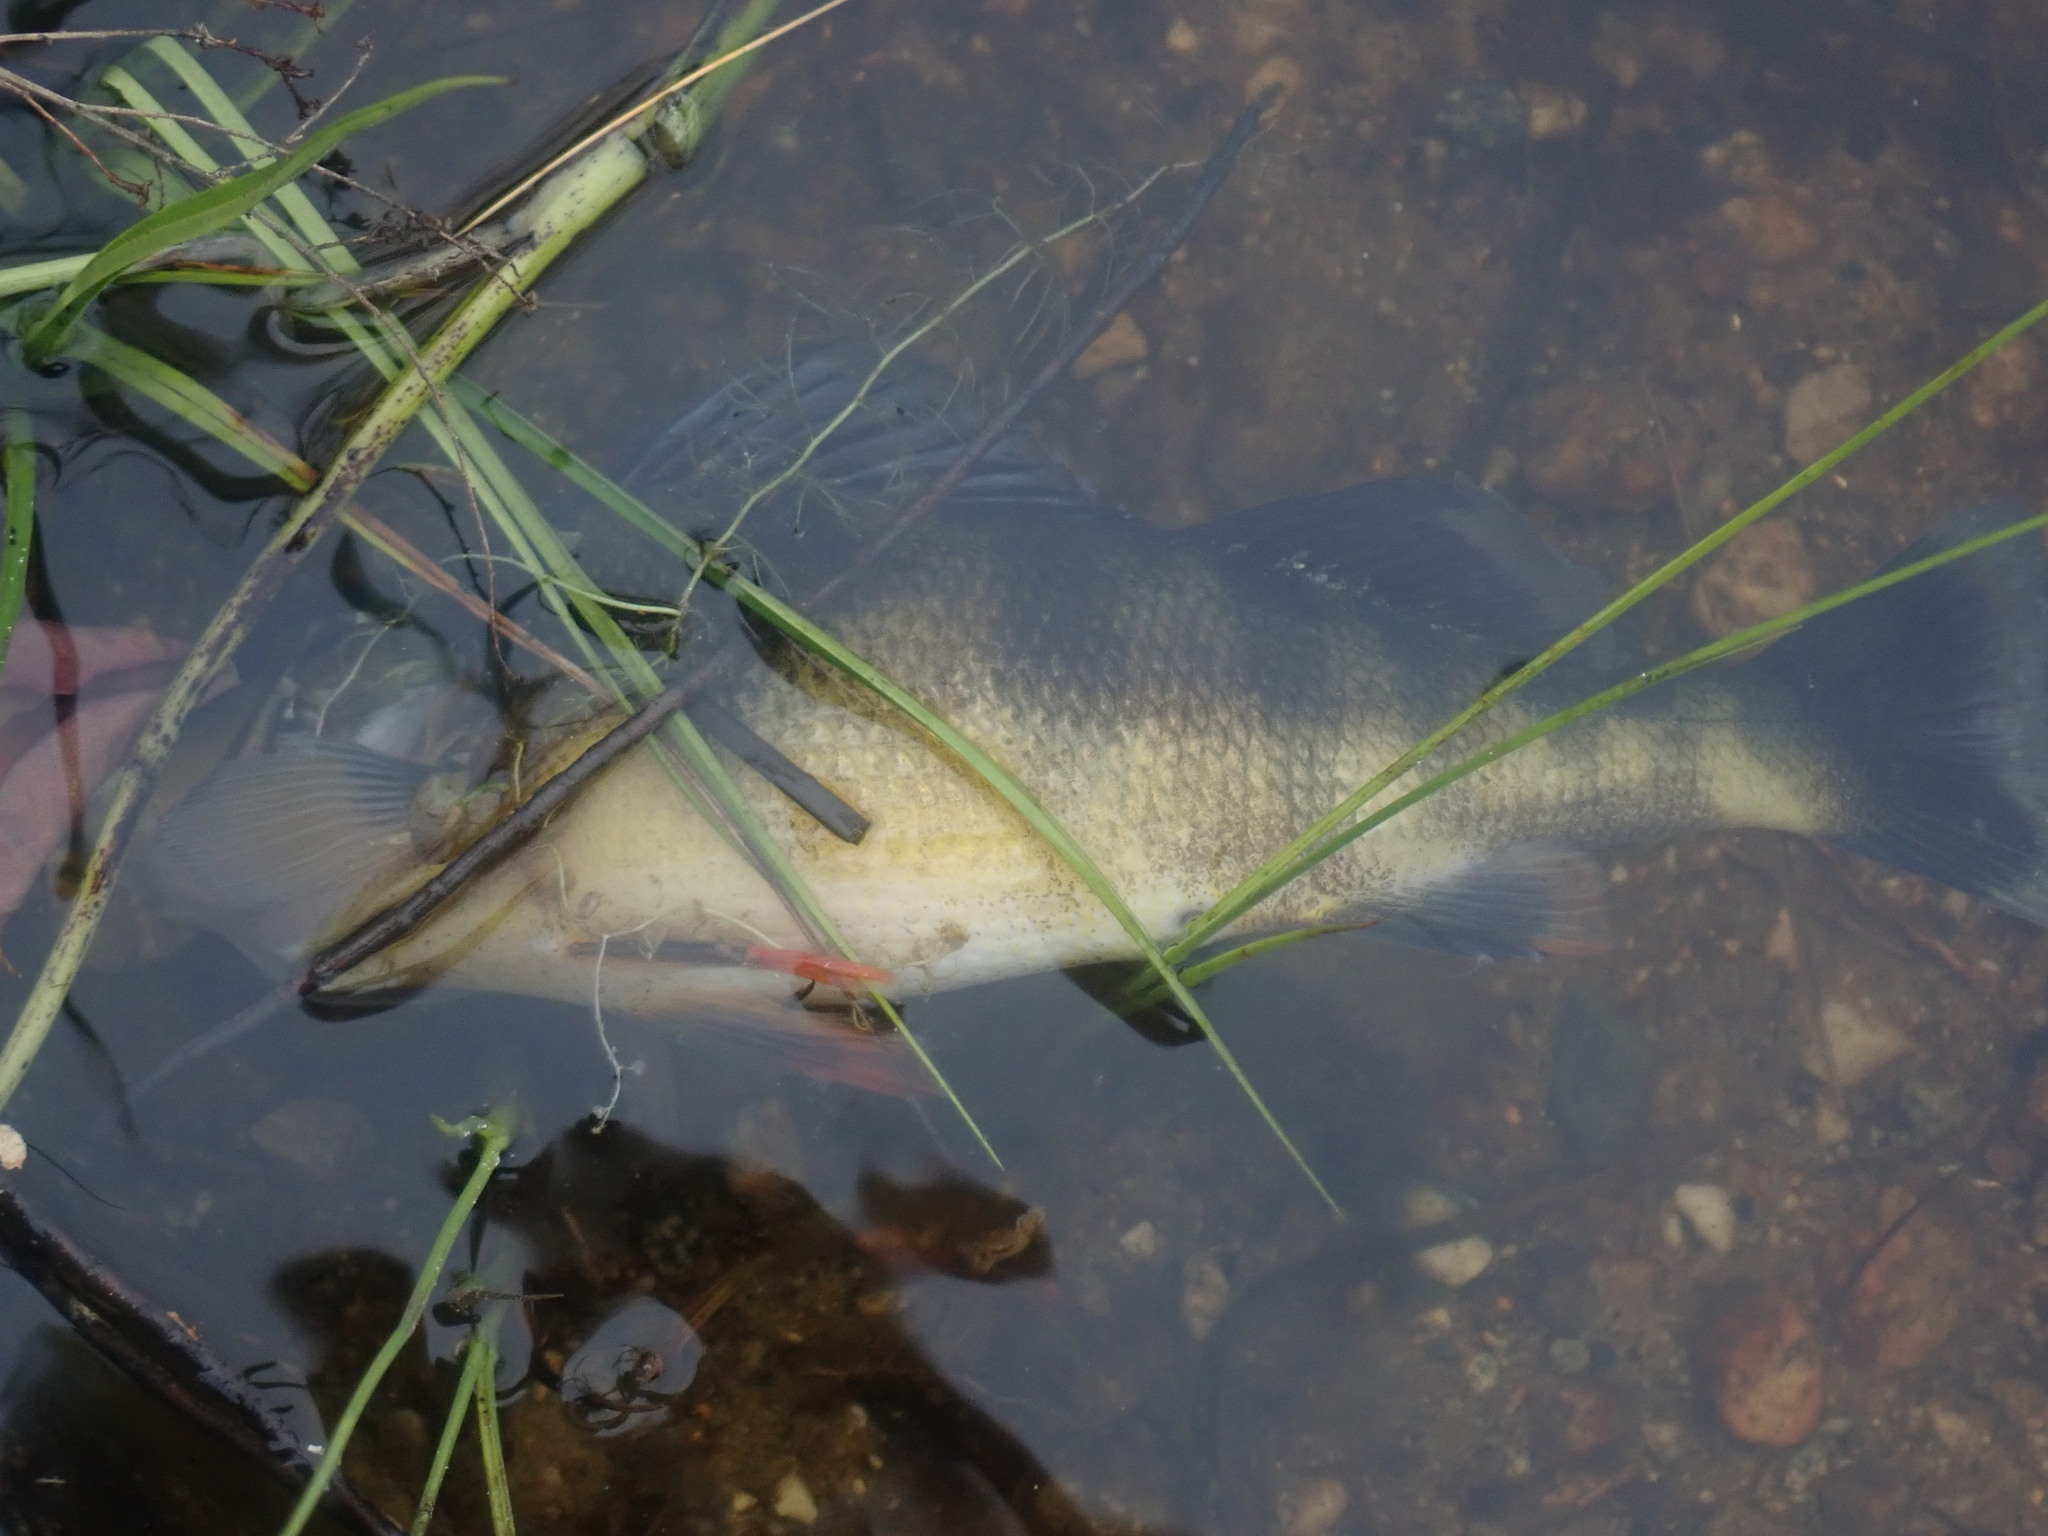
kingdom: Animalia
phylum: Chordata
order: Perciformes
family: Percidae
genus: Perca
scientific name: Perca flavescens
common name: Yellow perch
